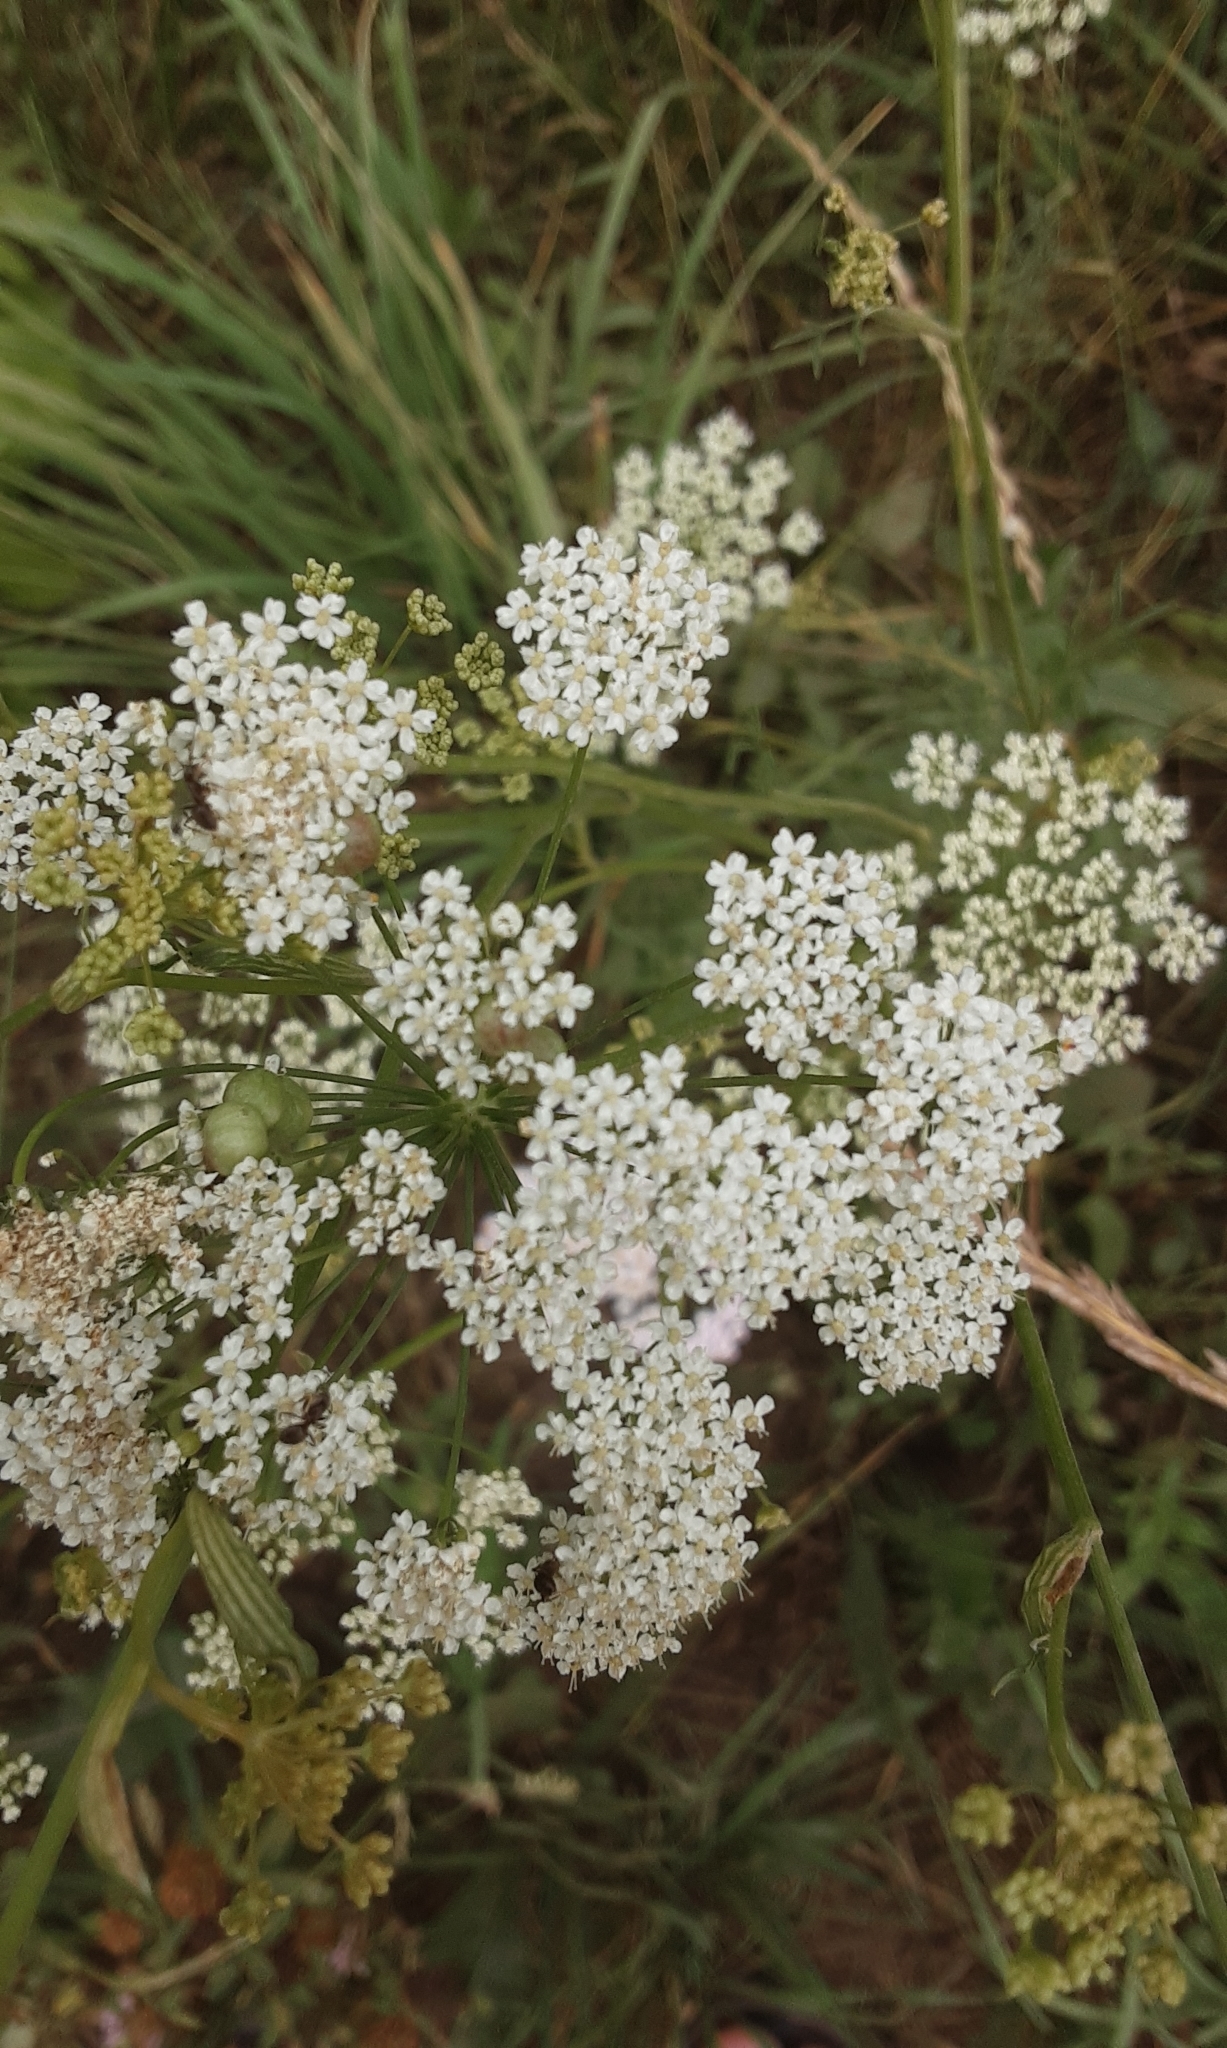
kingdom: Plantae
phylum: Tracheophyta
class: Magnoliopsida
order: Apiales
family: Apiaceae
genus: Pimpinella
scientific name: Pimpinella saxifraga
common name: Burnet-saxifrage
